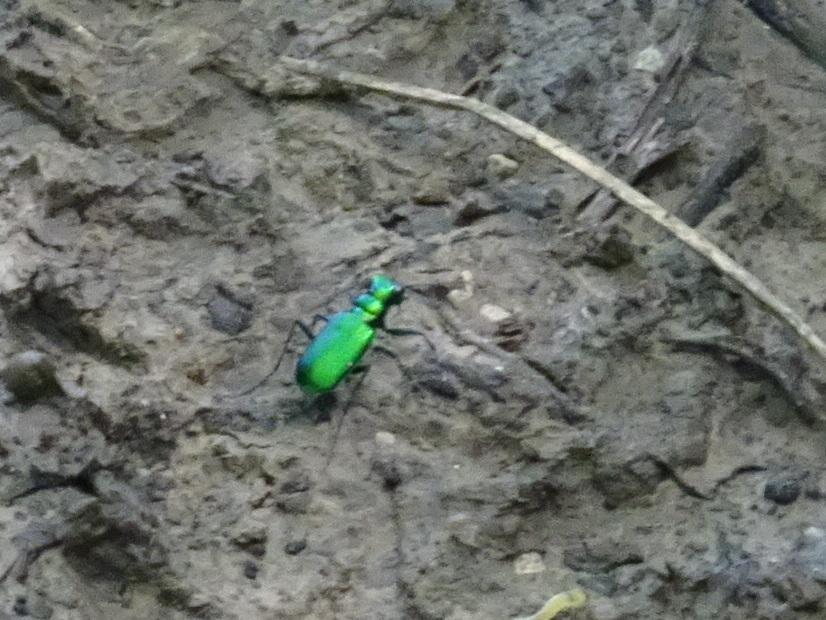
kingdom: Animalia
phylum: Arthropoda
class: Insecta
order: Coleoptera
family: Carabidae
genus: Cicindela
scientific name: Cicindela sexguttata
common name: Six-spotted tiger beetle
